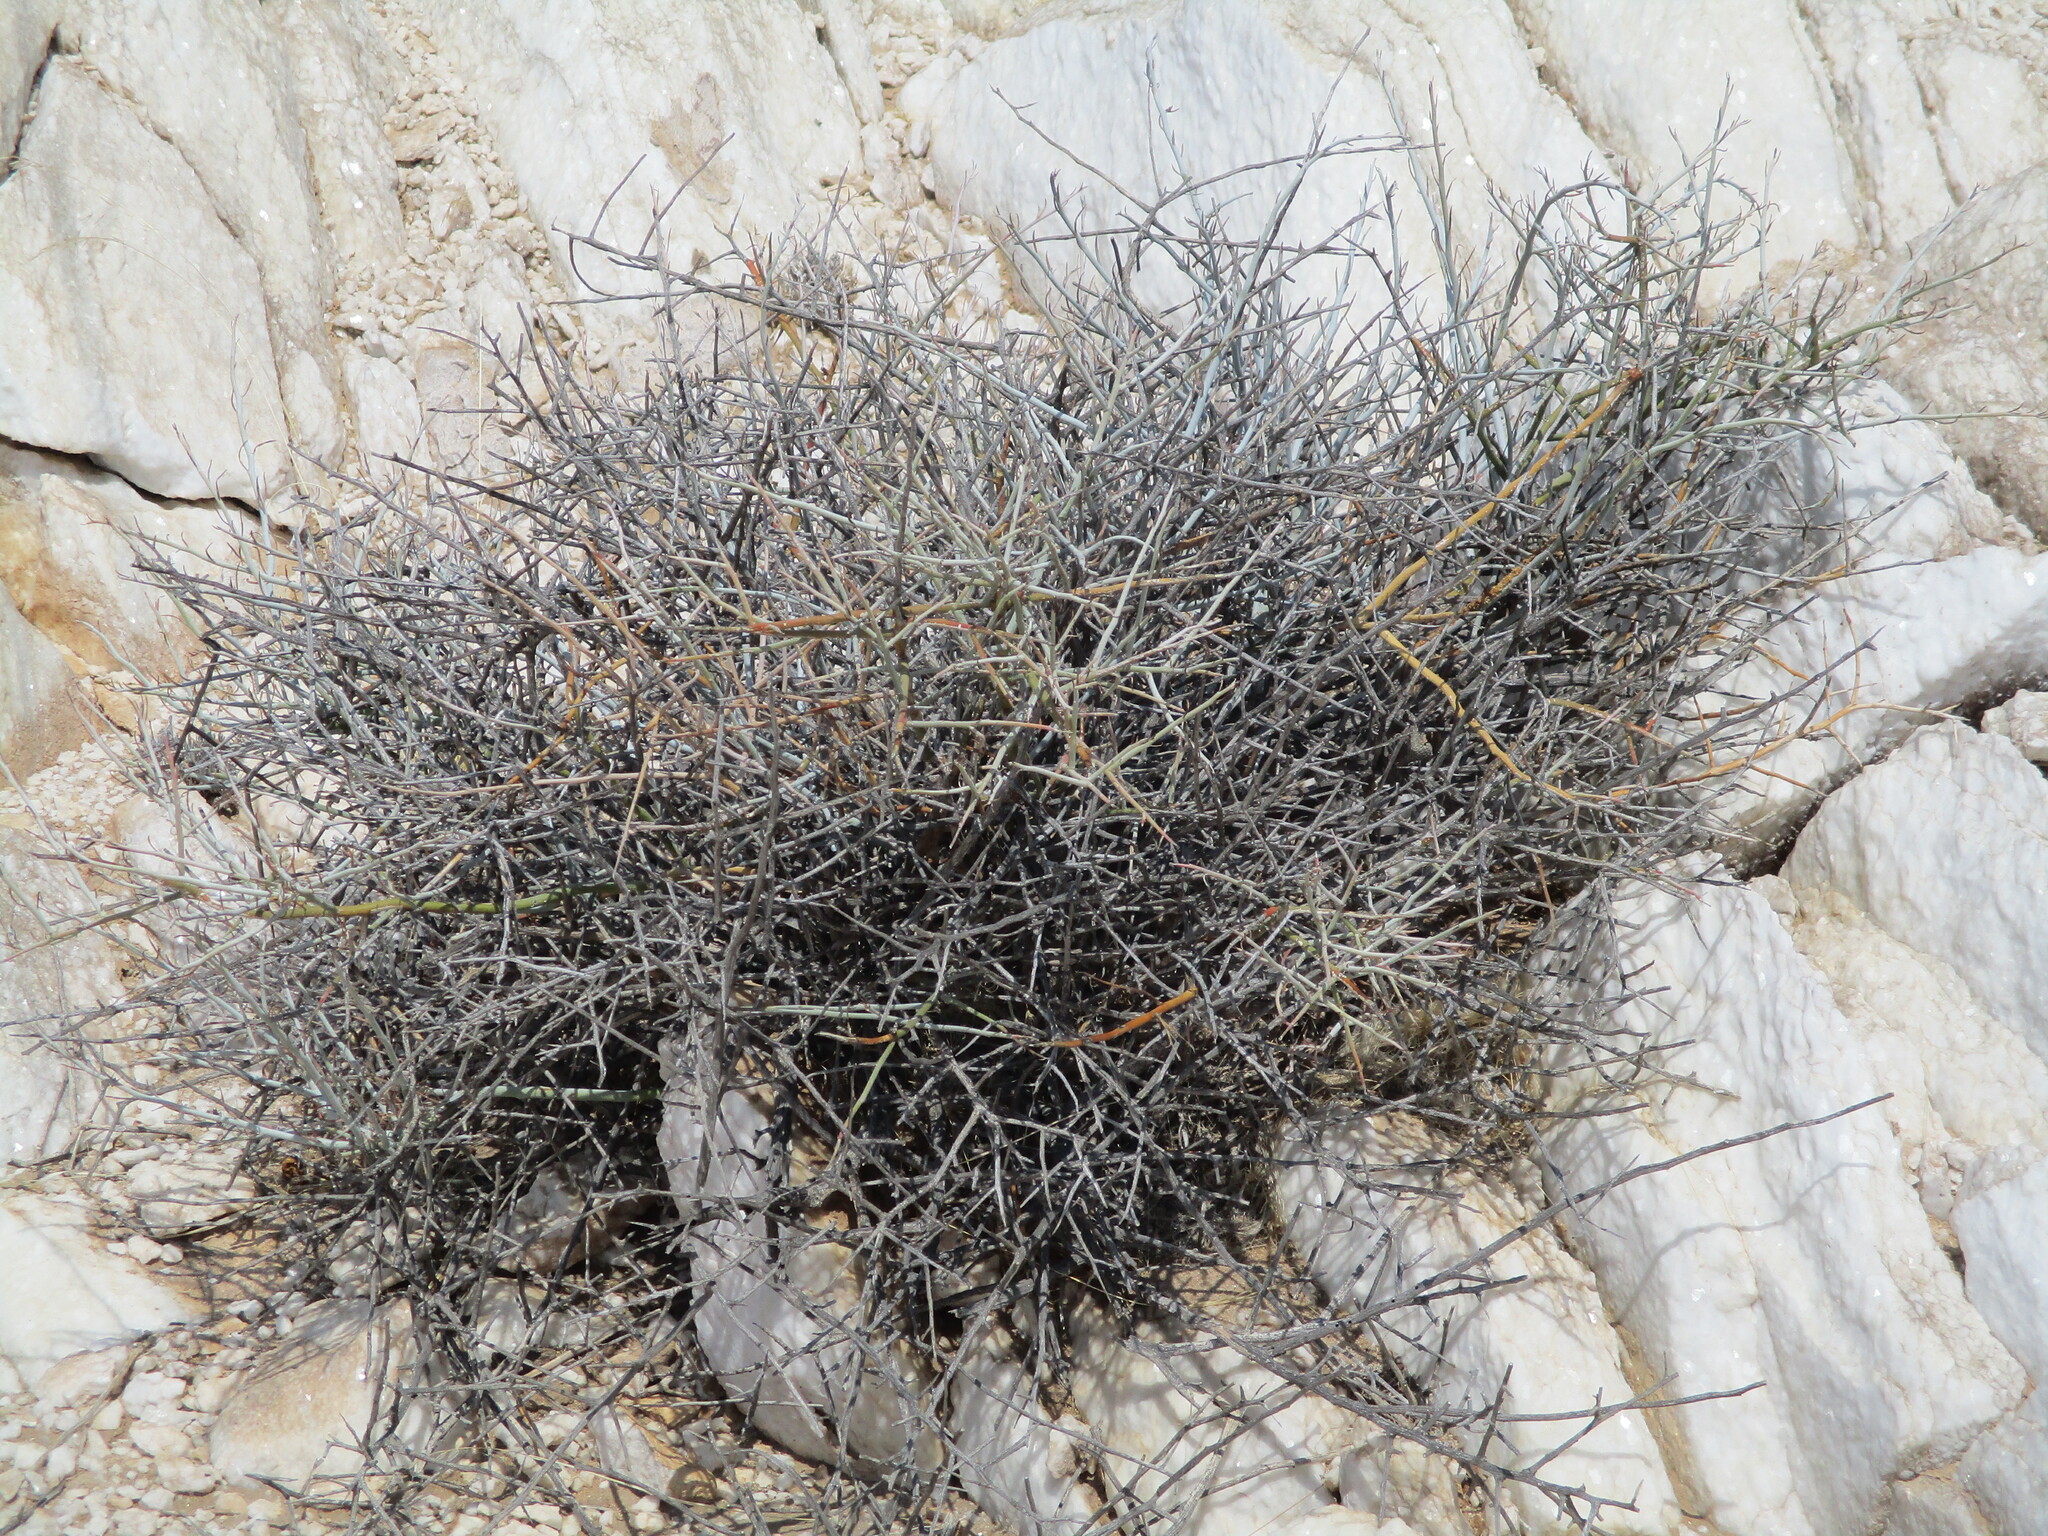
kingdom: Plantae
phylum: Tracheophyta
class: Magnoliopsida
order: Caryophyllales
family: Amaranthaceae
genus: Calicorema
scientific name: Calicorema capitata
